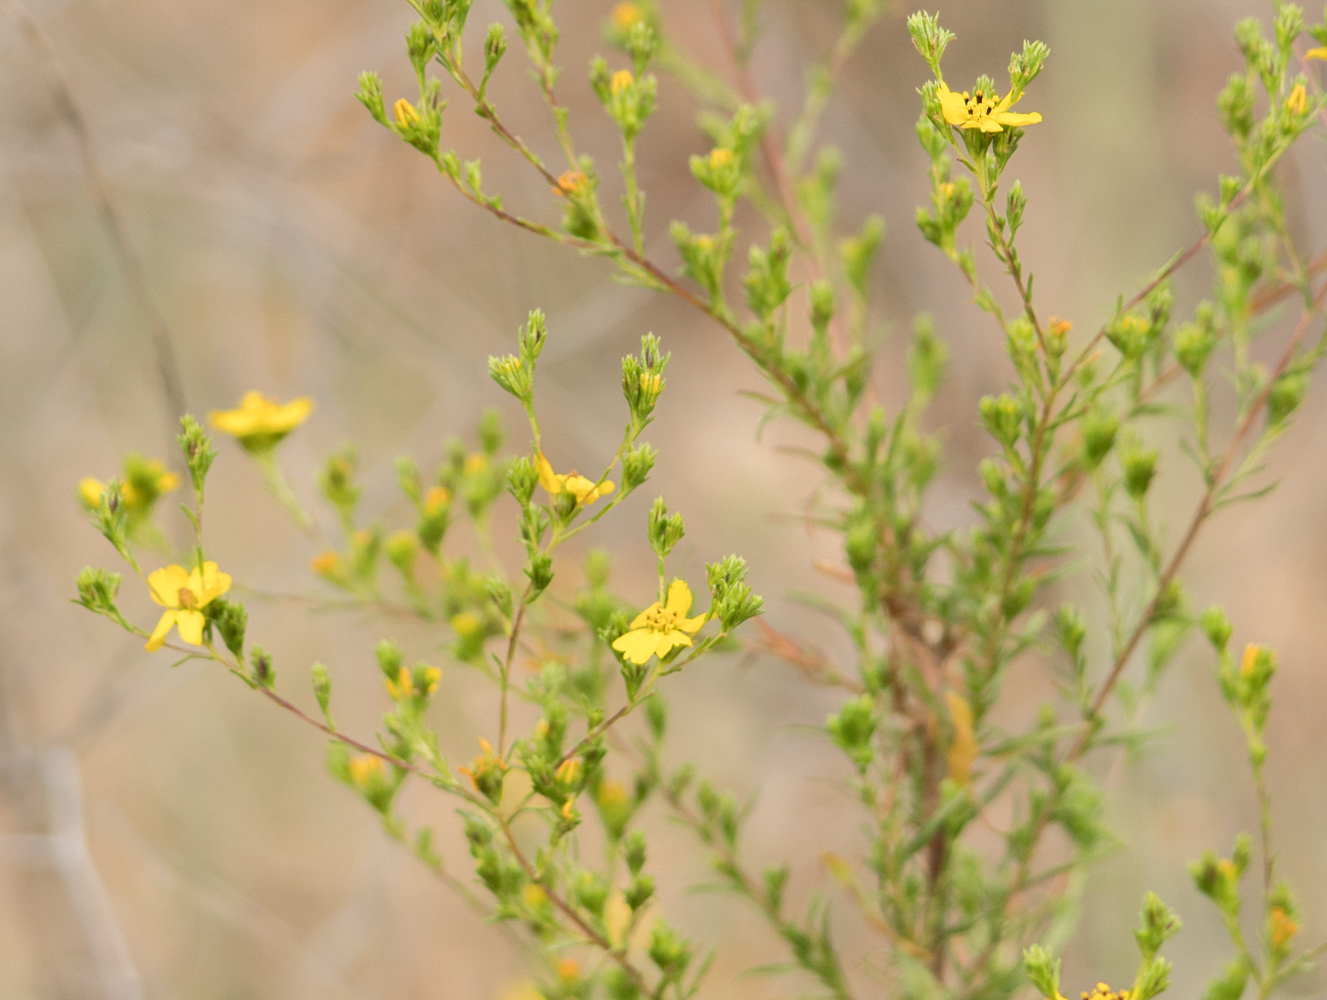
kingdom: Plantae
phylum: Tracheophyta
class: Magnoliopsida
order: Asterales
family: Asteraceae
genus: Deinandra
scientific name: Deinandra fasciculata
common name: Clustered tarweed
